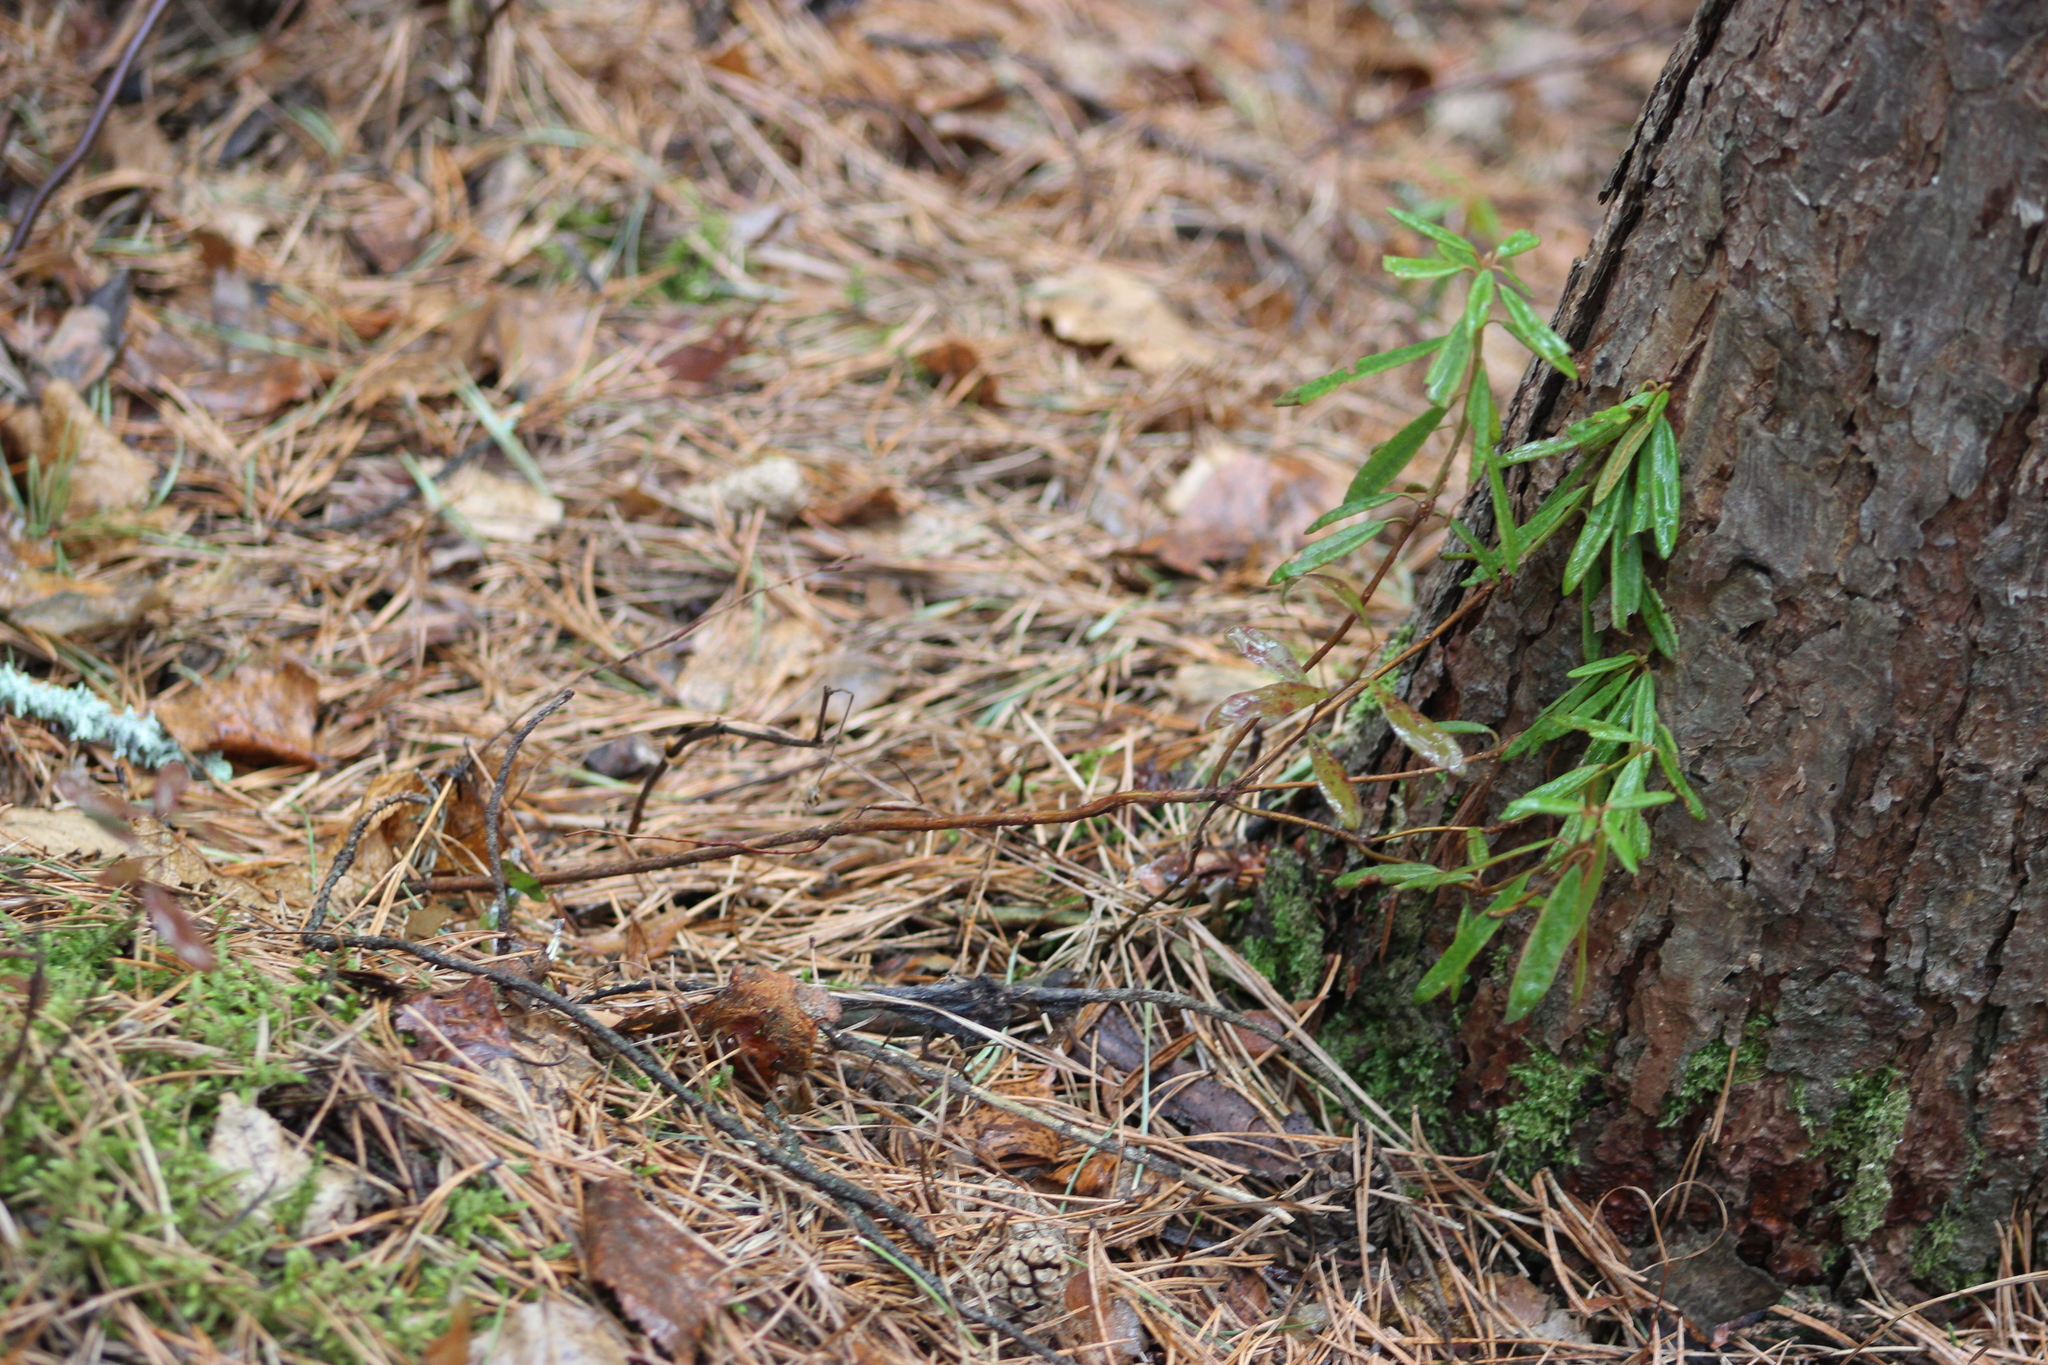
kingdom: Plantae
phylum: Tracheophyta
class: Magnoliopsida
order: Ericales
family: Ericaceae
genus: Rhododendron
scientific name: Rhododendron tomentosum
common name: Marsh labrador tea
